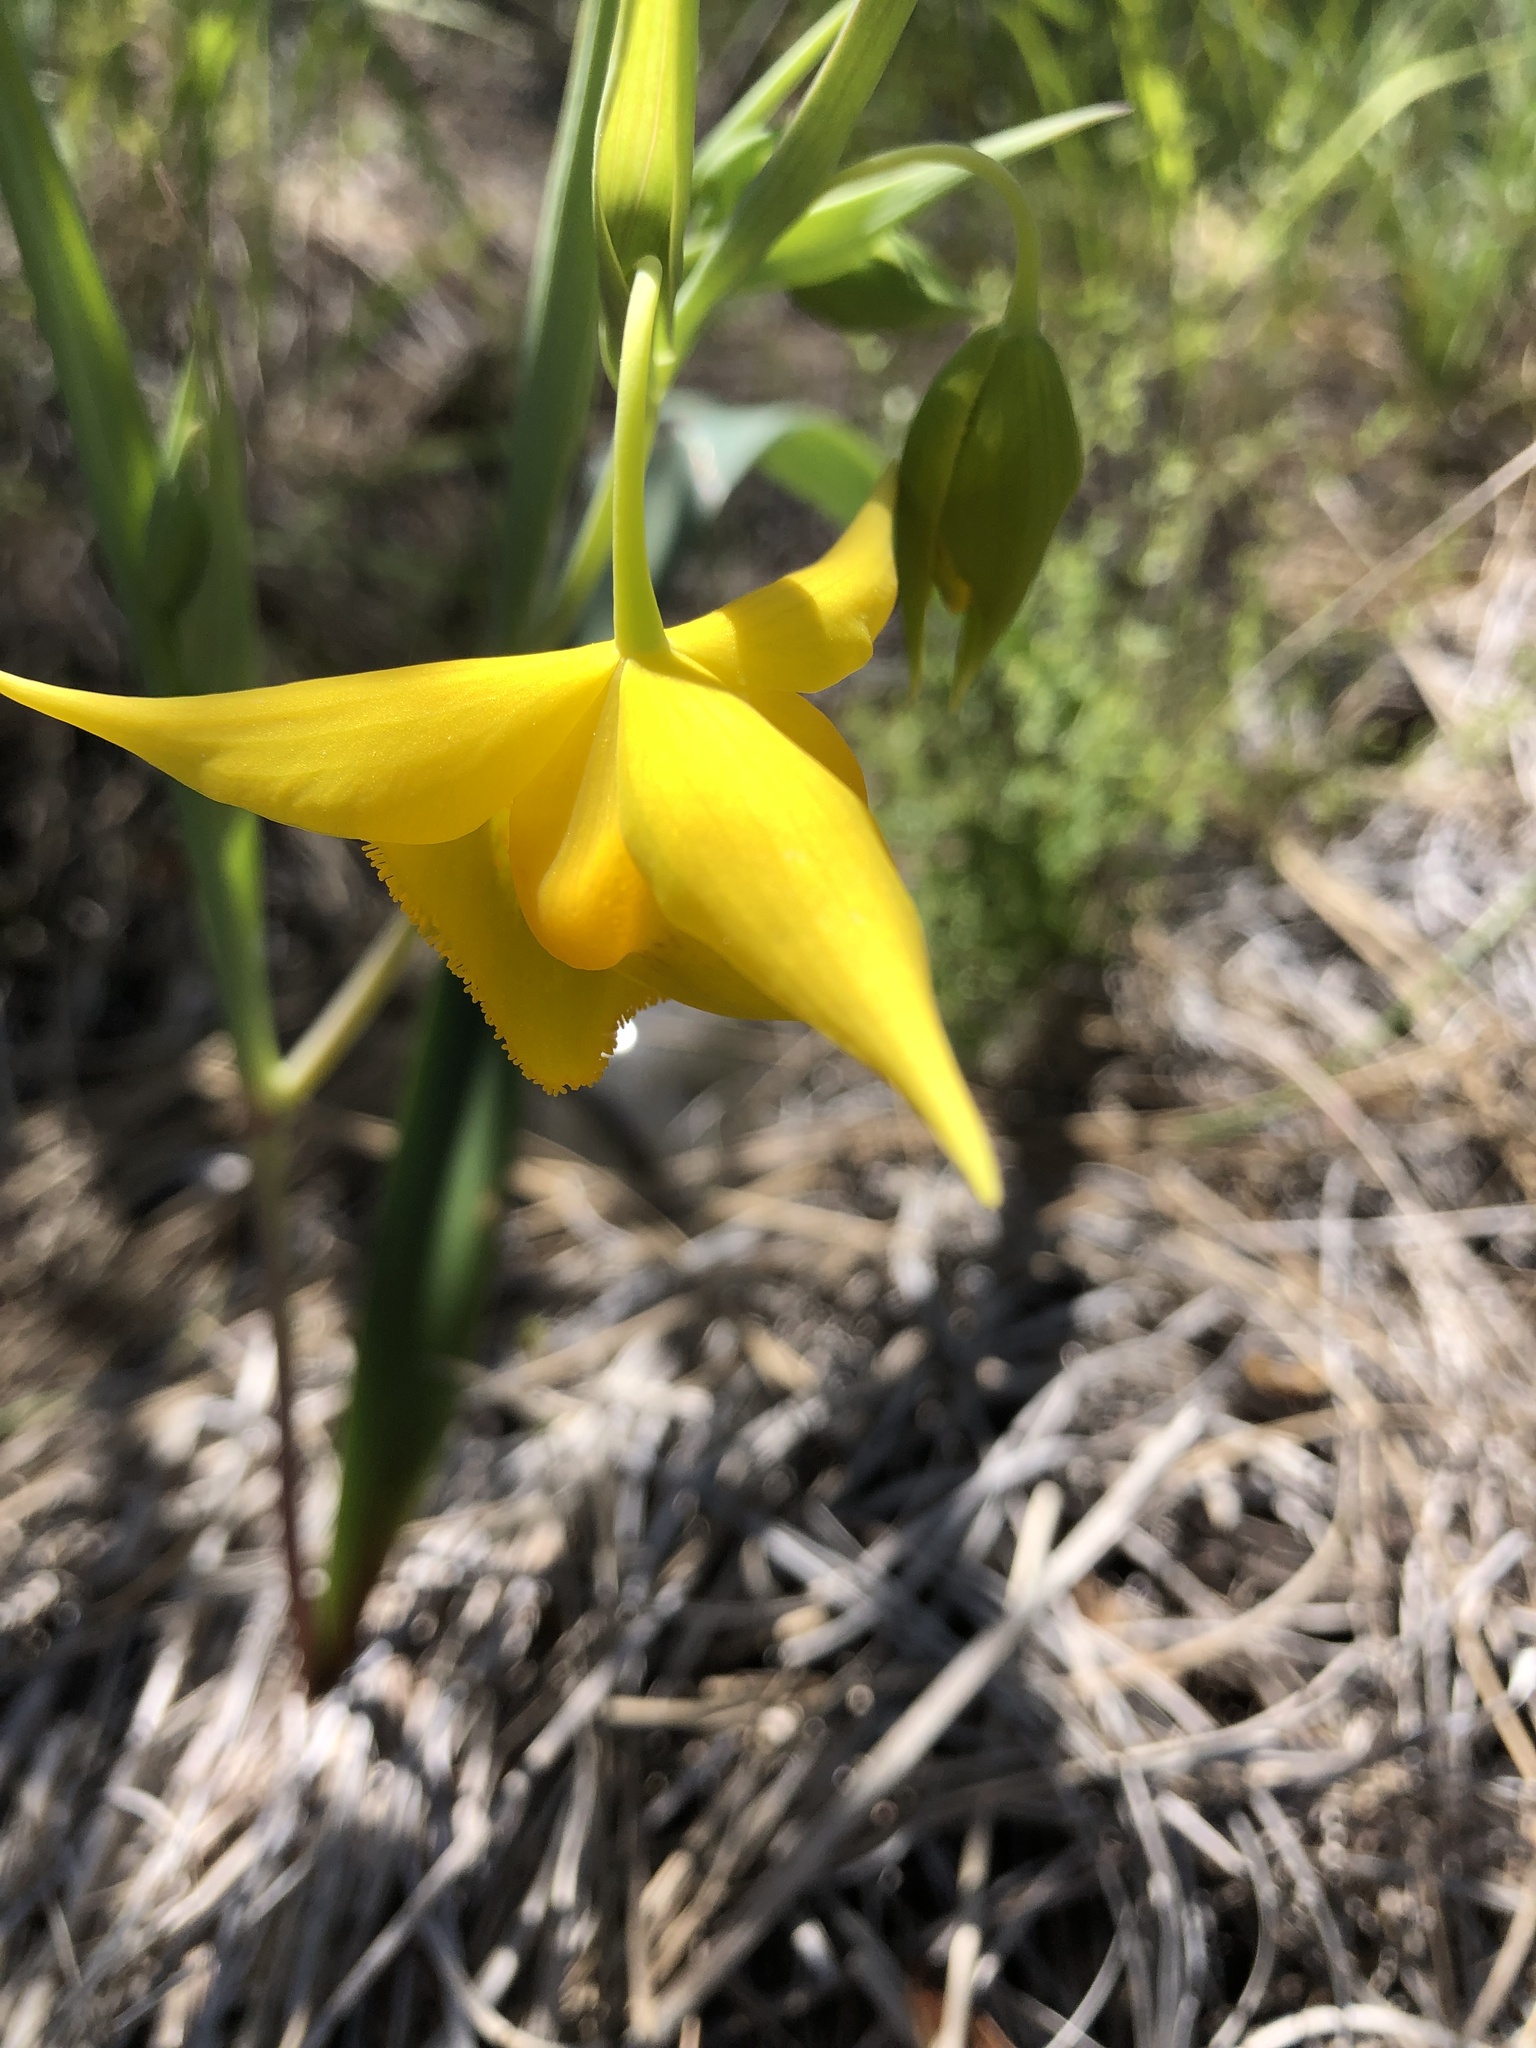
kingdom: Plantae
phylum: Tracheophyta
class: Liliopsida
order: Liliales
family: Liliaceae
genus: Calochortus
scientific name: Calochortus amabilis
